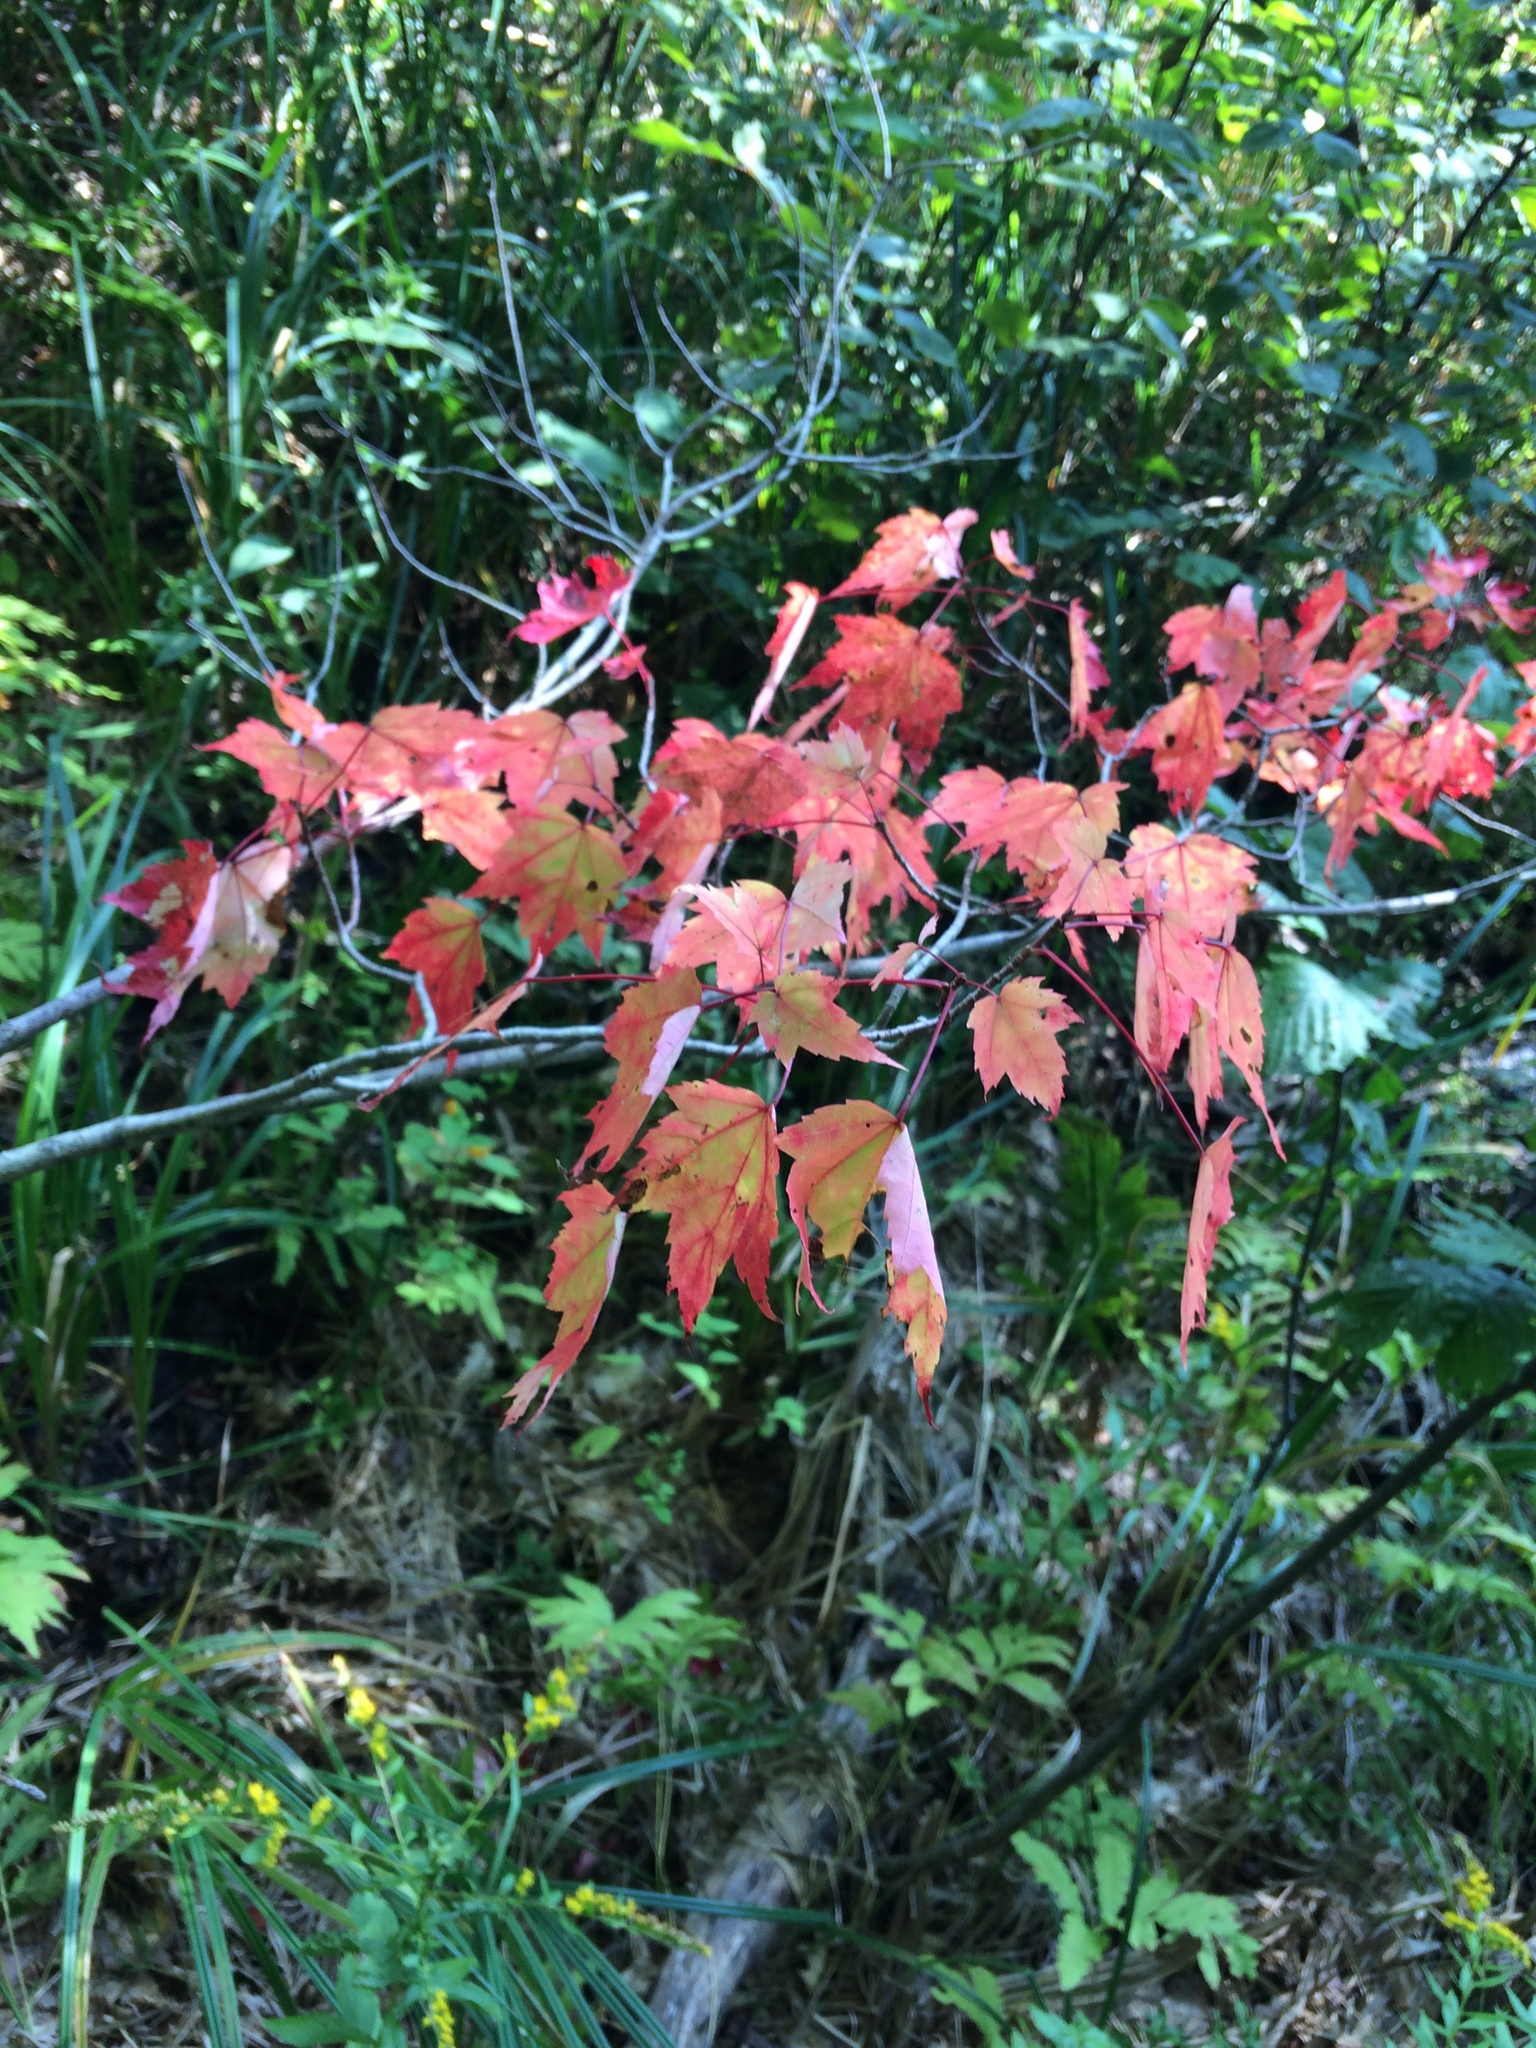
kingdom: Plantae
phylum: Tracheophyta
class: Magnoliopsida
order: Sapindales
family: Sapindaceae
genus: Acer
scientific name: Acer rubrum
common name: Red maple
